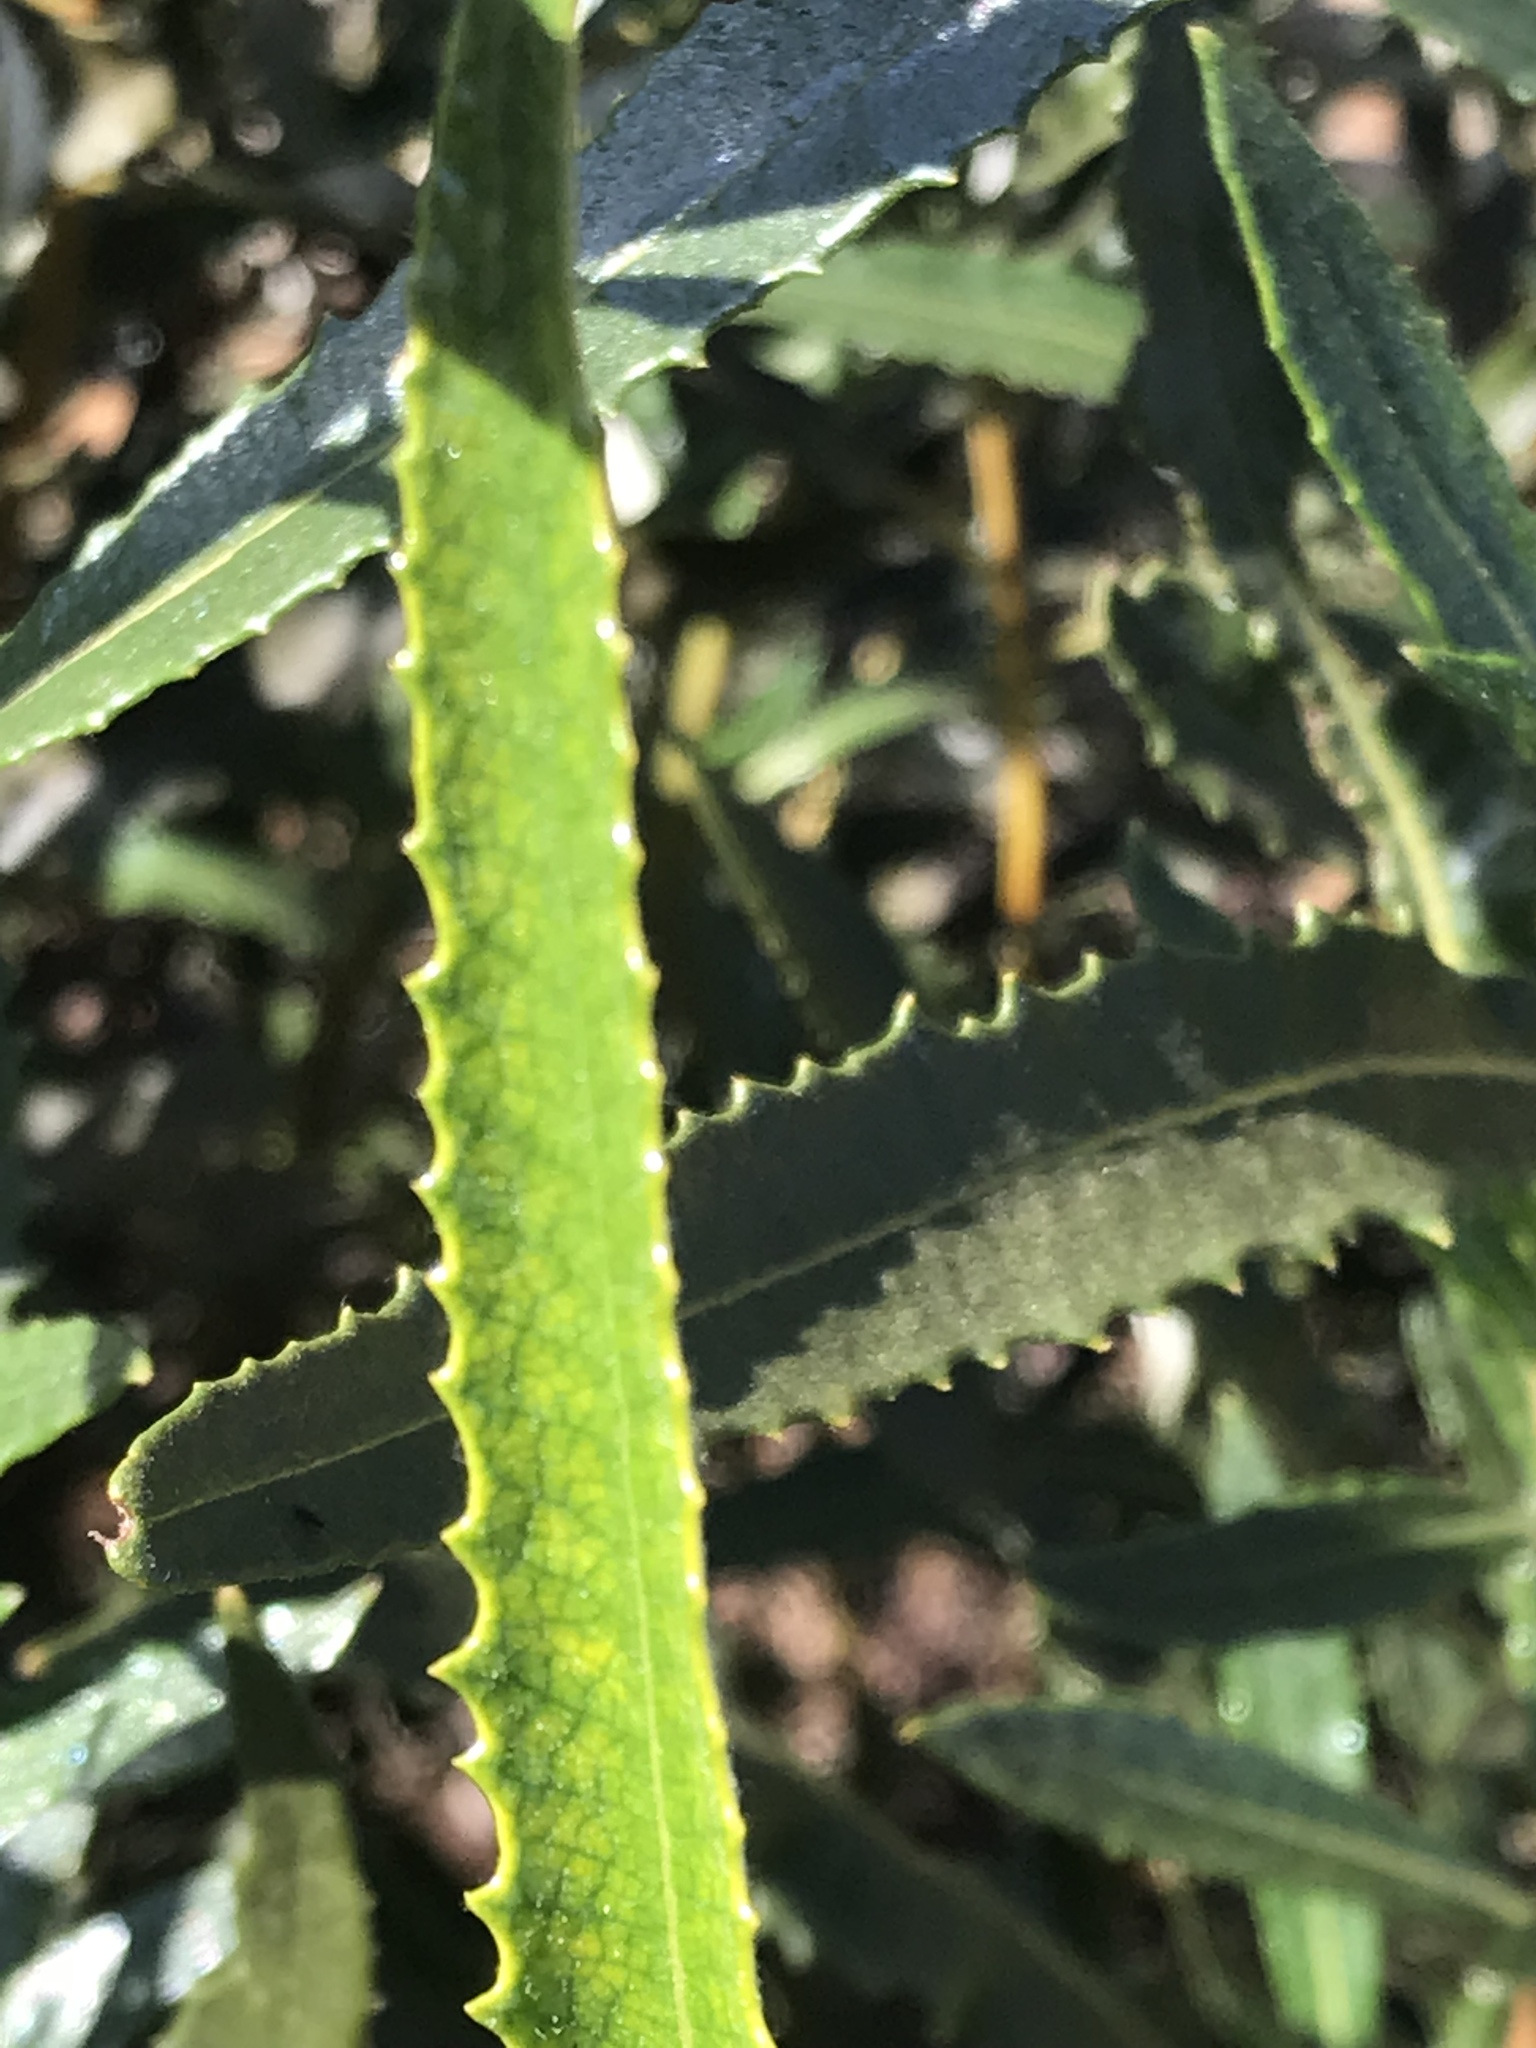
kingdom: Plantae
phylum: Tracheophyta
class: Magnoliopsida
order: Boraginales
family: Namaceae
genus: Eriodictyon
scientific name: Eriodictyon trichocalyx
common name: Hairy yerba-santa
